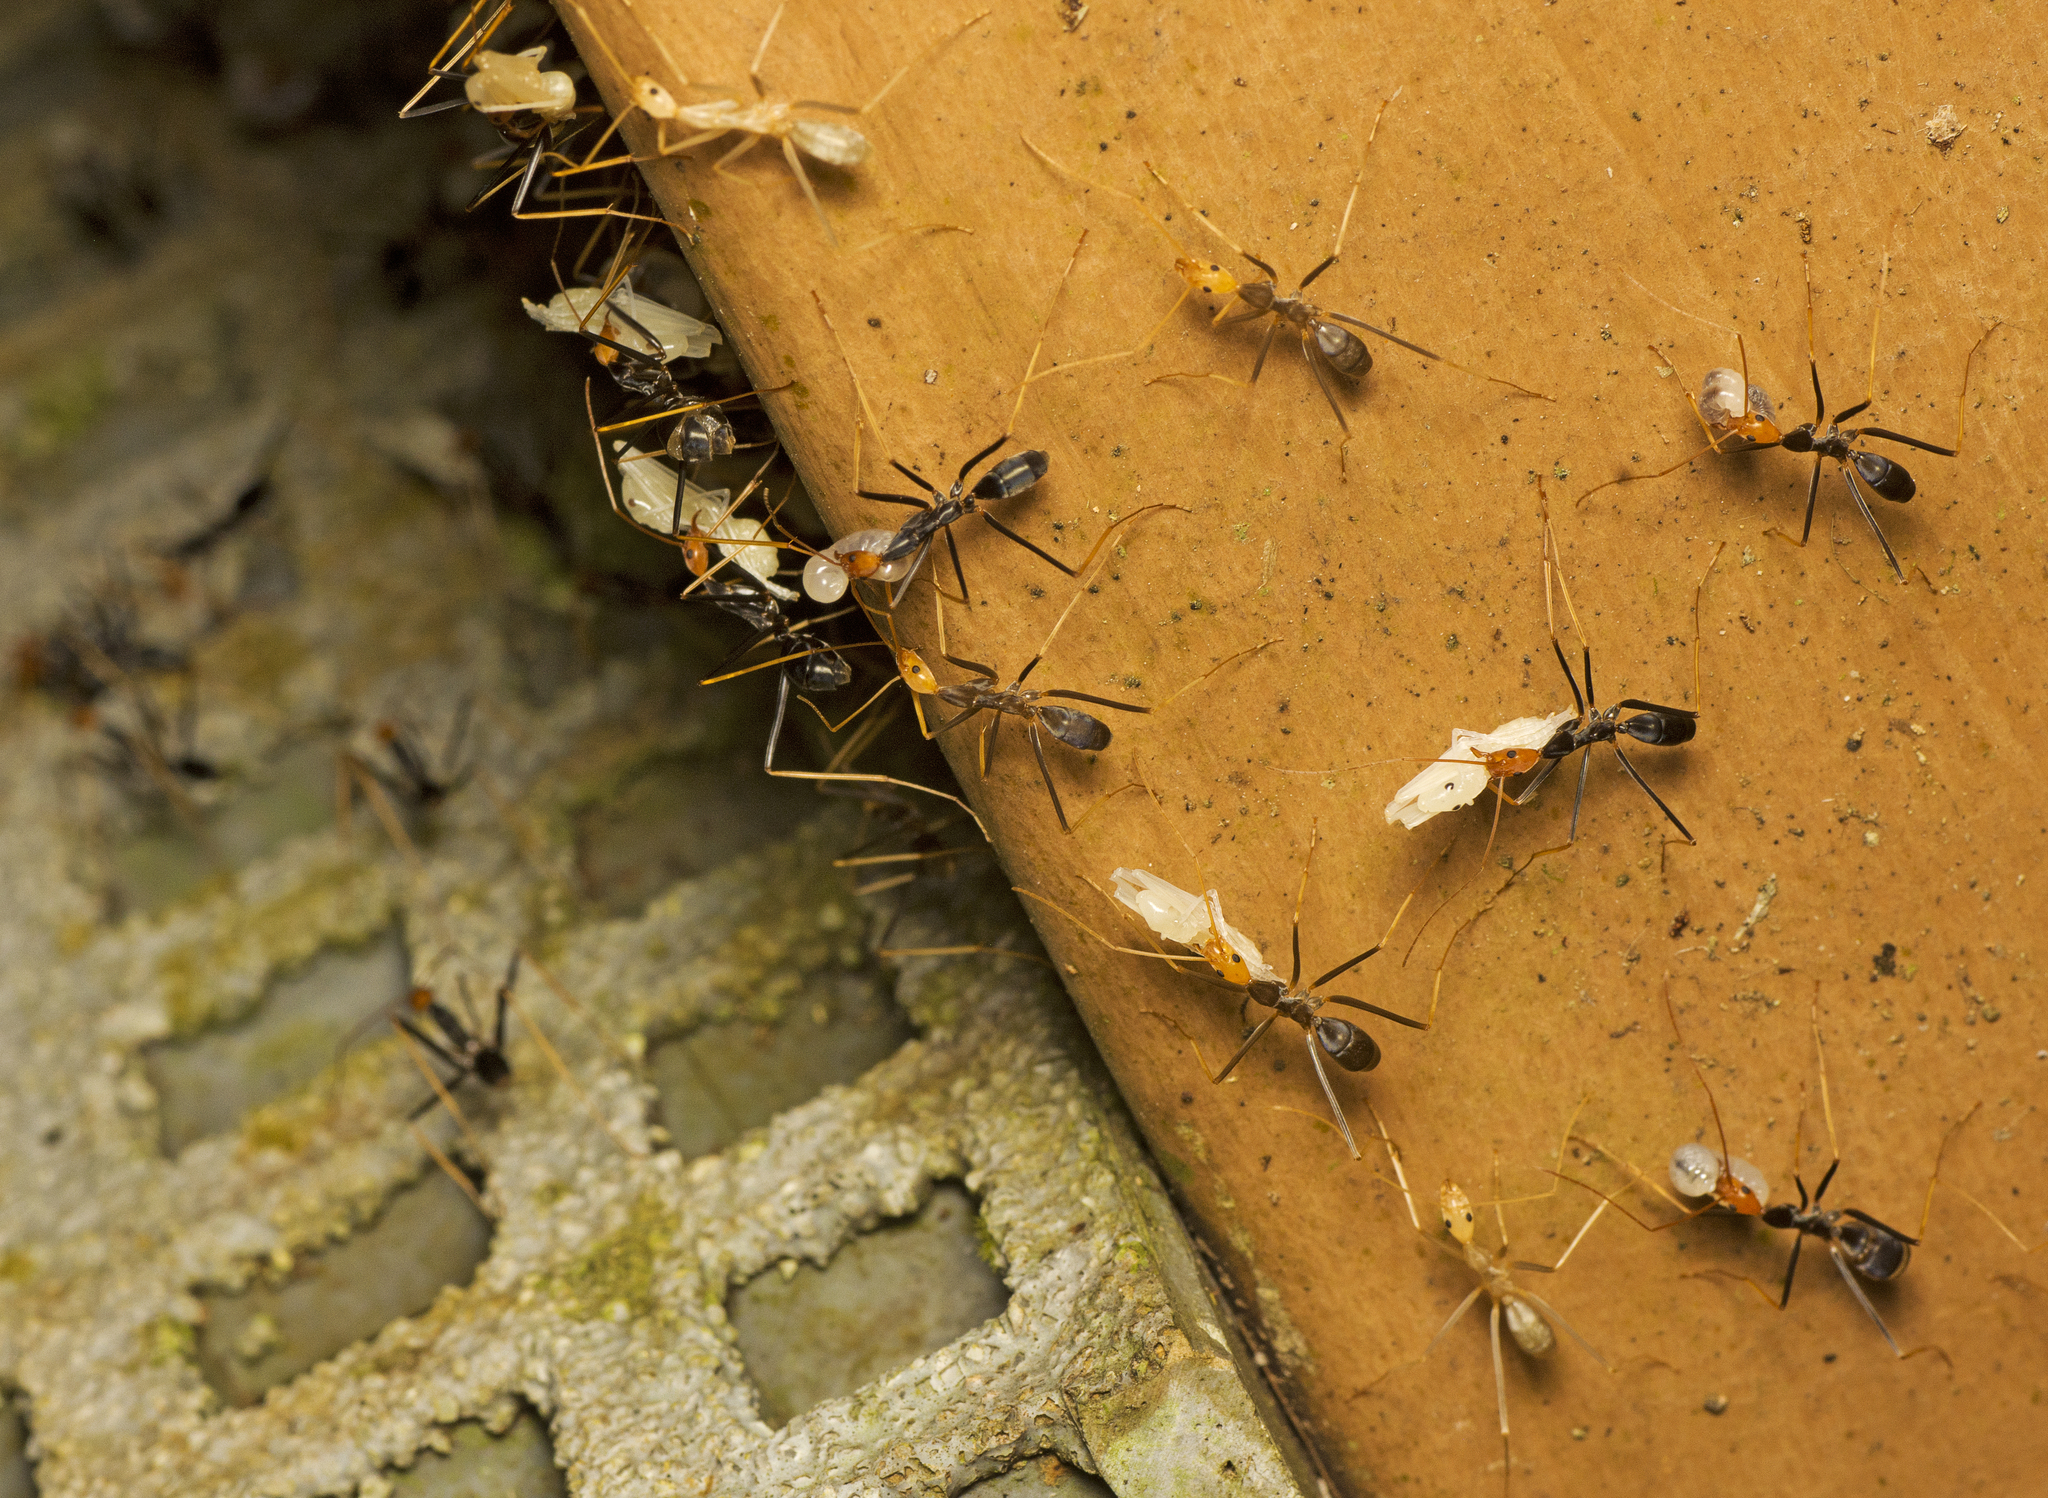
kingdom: Animalia
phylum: Arthropoda
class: Insecta
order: Hymenoptera
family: Formicidae
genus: Leptomyrmex
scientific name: Leptomyrmex ruficeps
